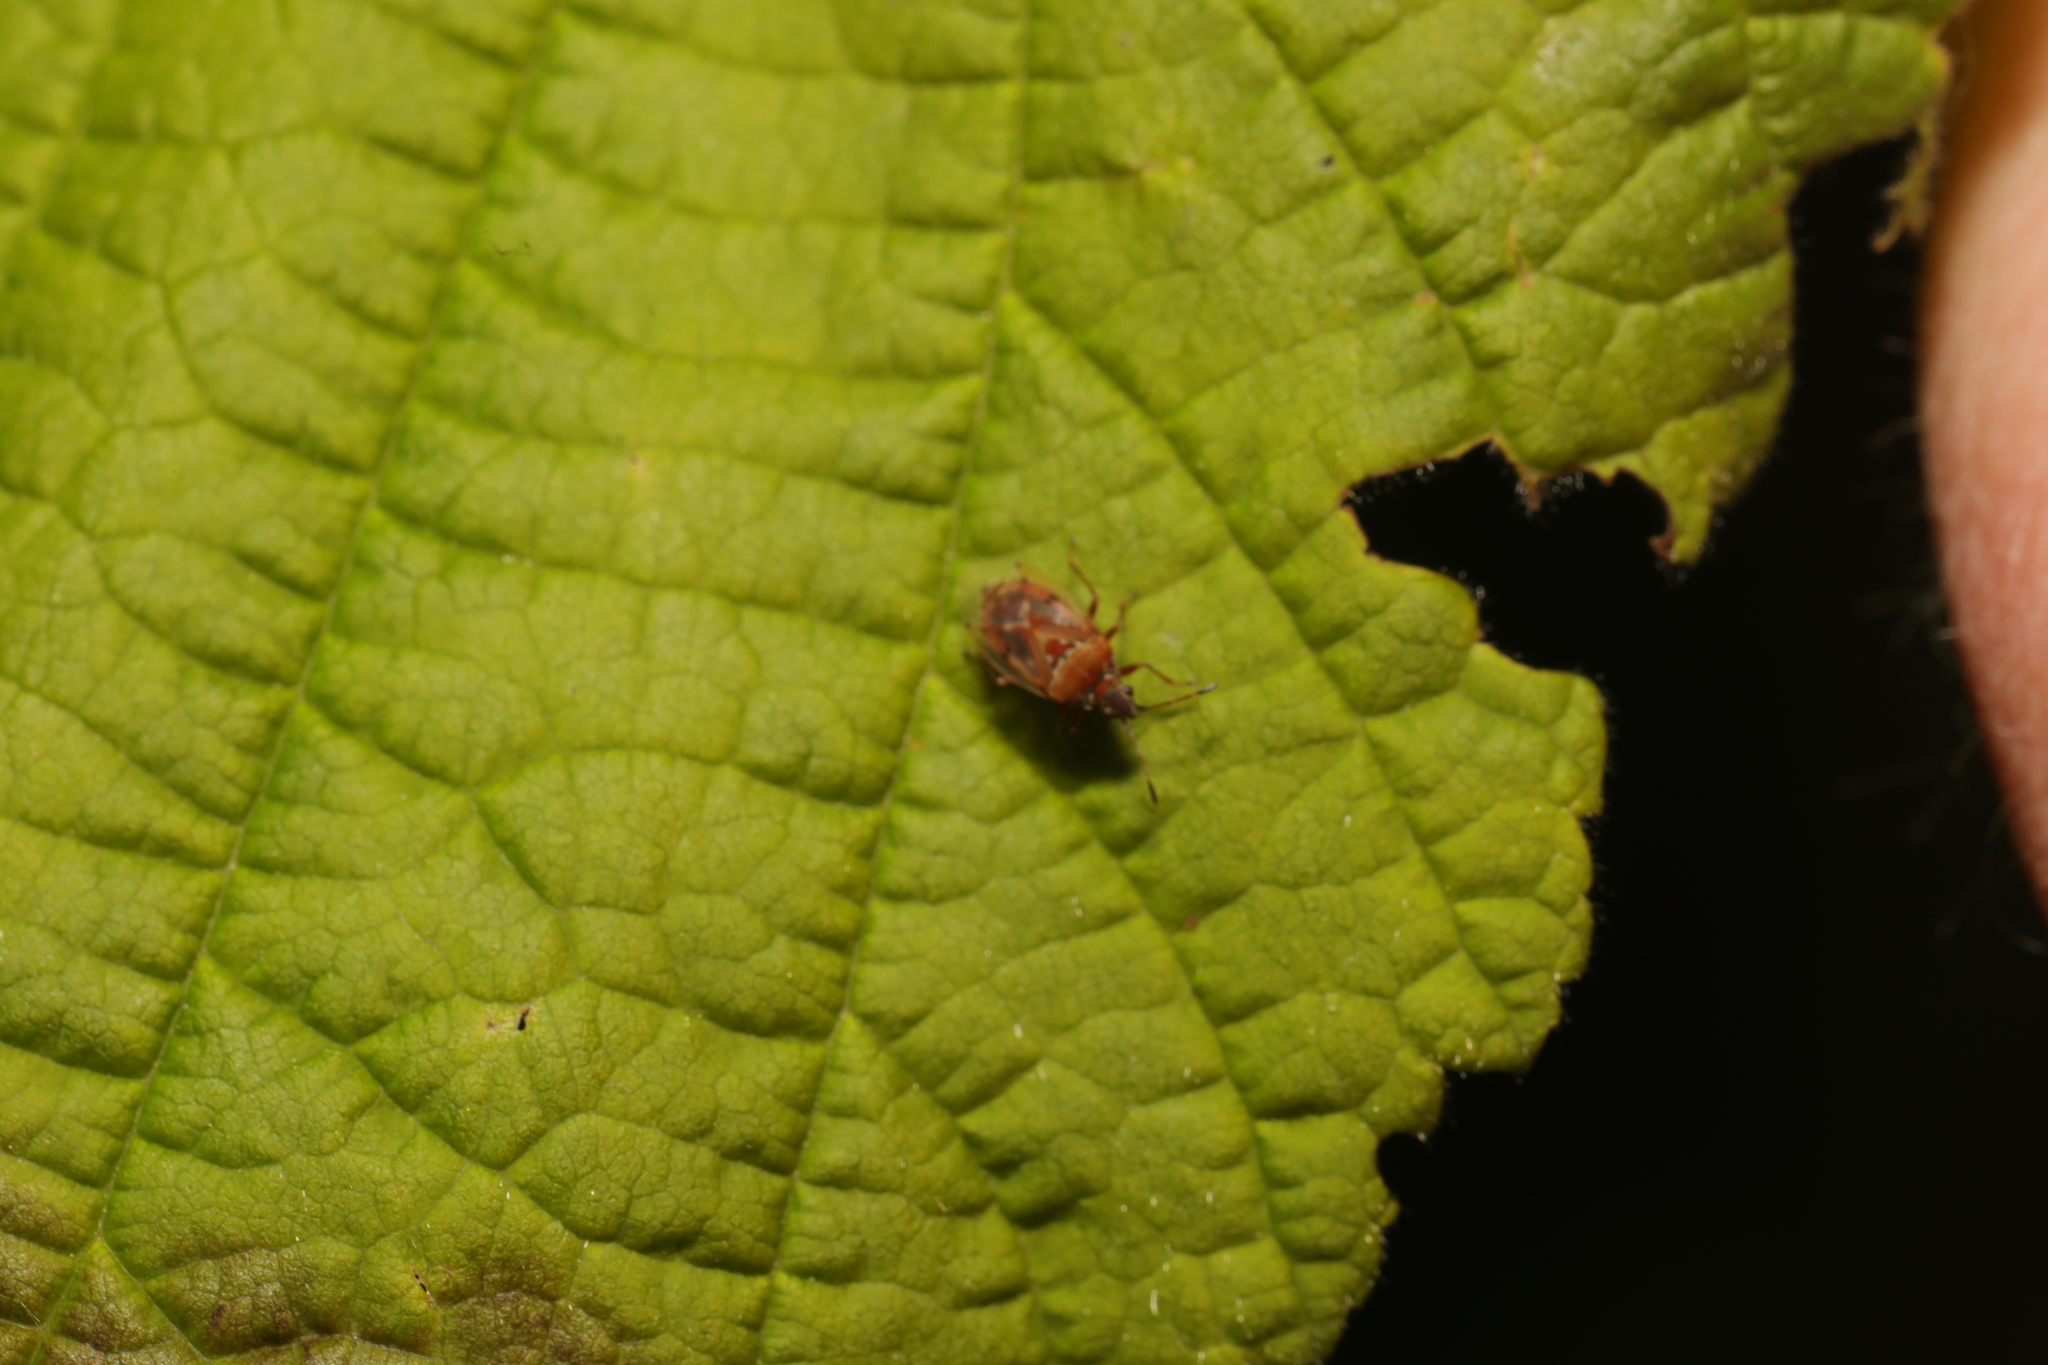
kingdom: Animalia
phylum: Arthropoda
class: Insecta
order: Hemiptera
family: Lygaeidae
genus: Kleidocerys
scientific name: Kleidocerys resedae
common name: Birch catkin bug
